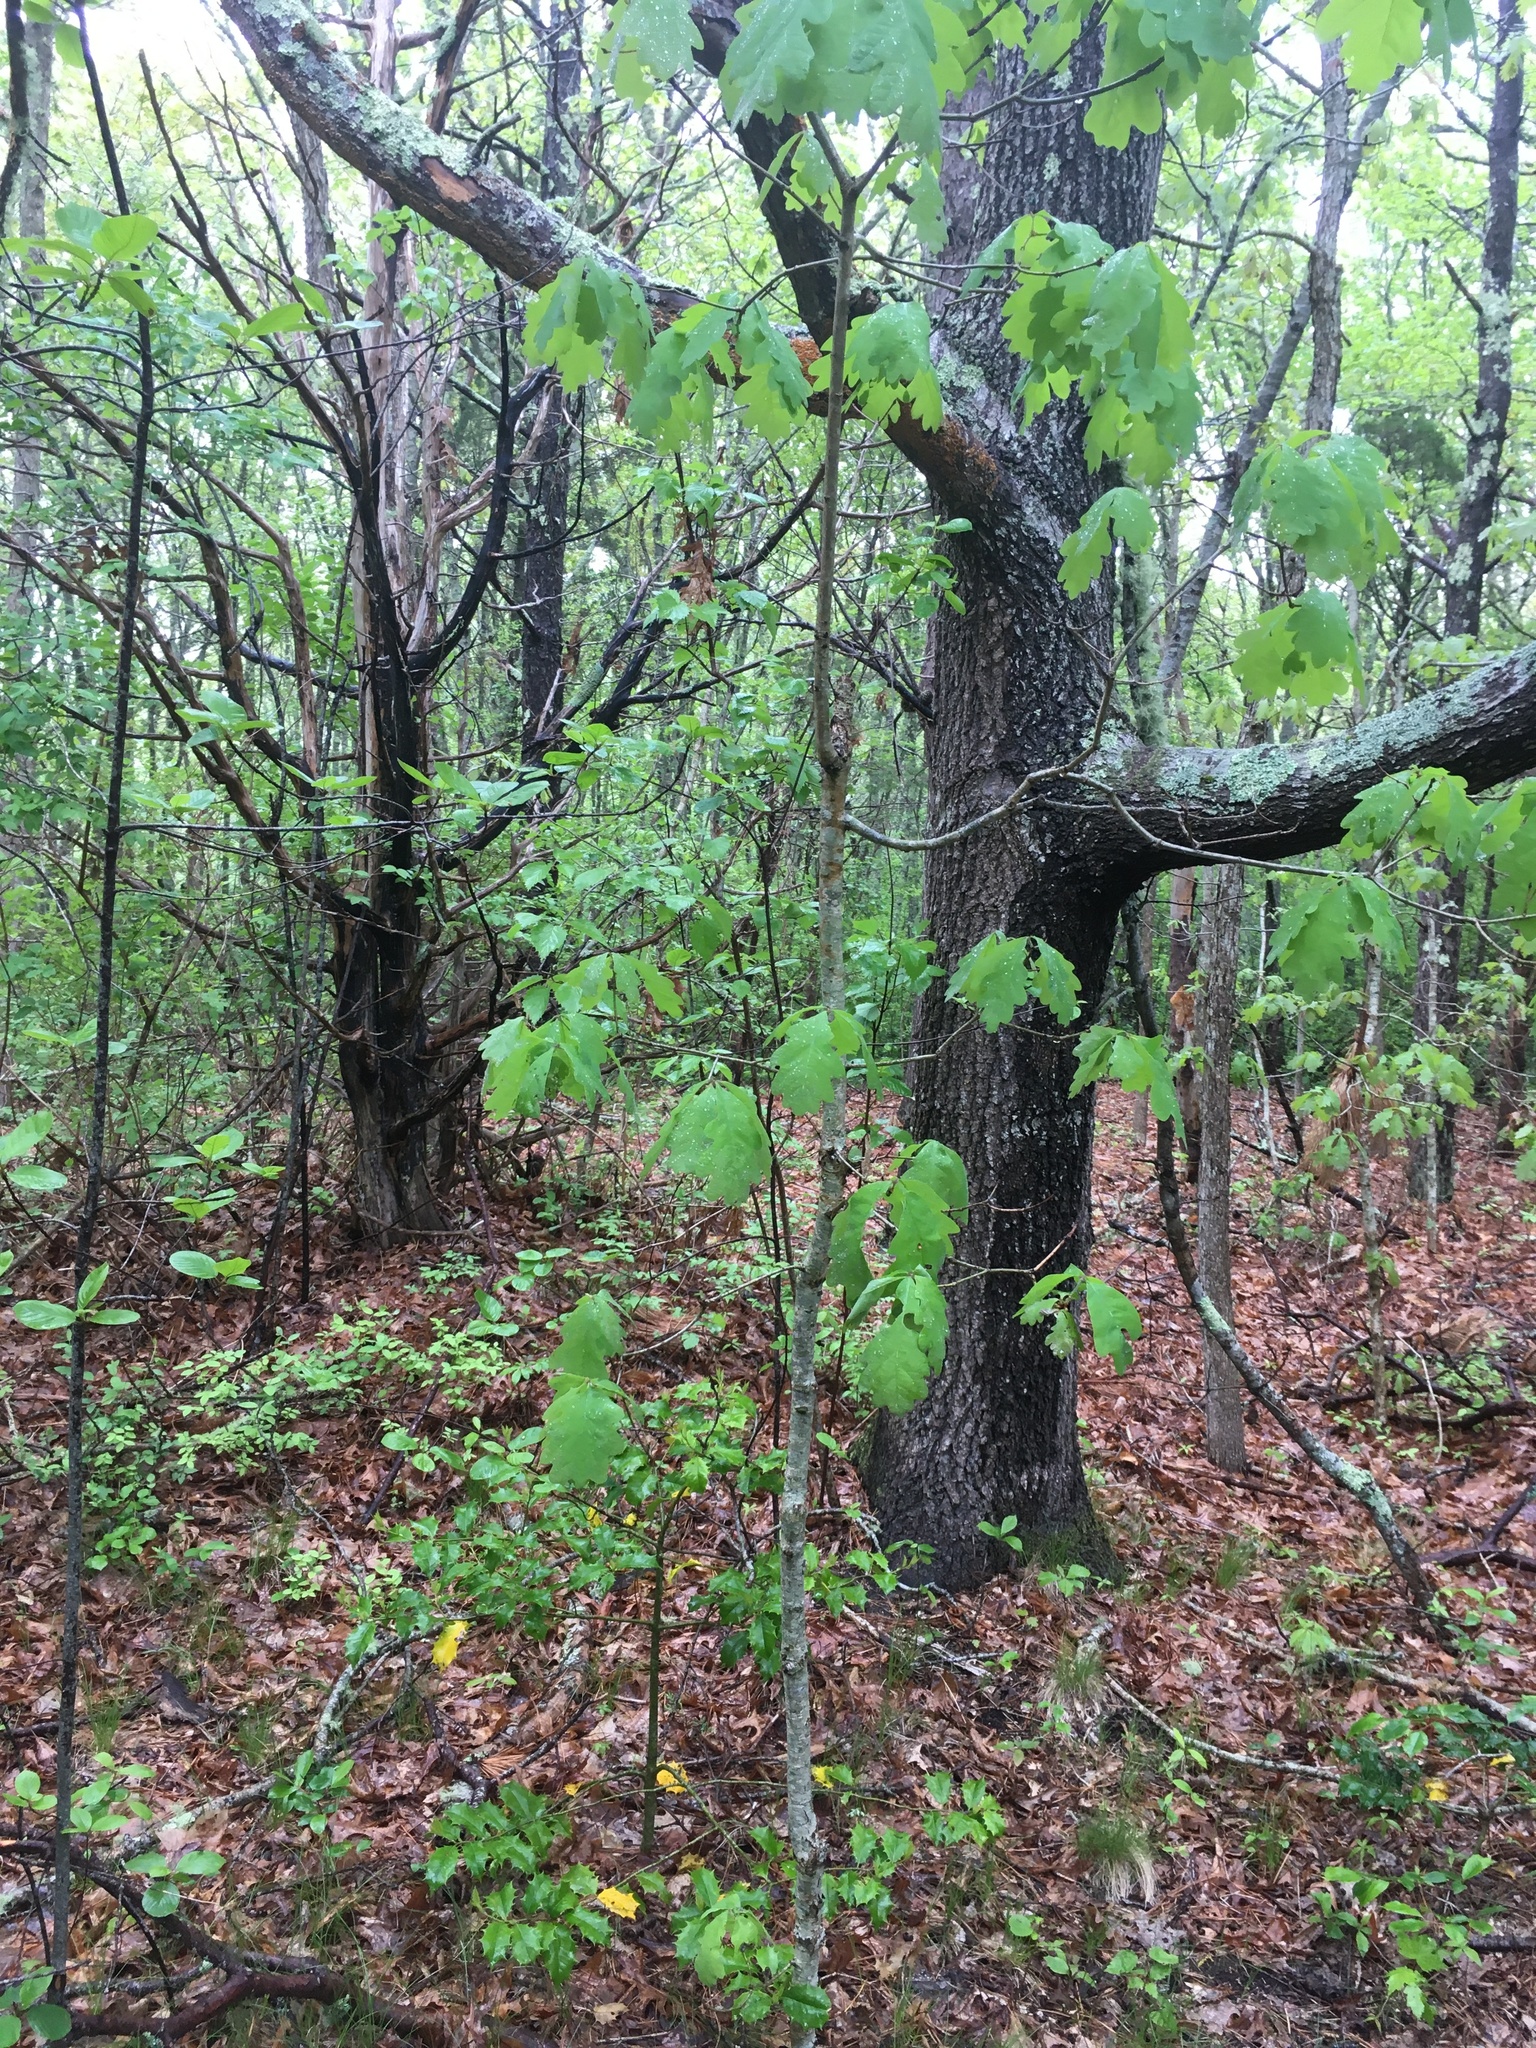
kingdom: Plantae
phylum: Tracheophyta
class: Magnoliopsida
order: Fagales
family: Fagaceae
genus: Quercus
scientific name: Quercus alba
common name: White oak
